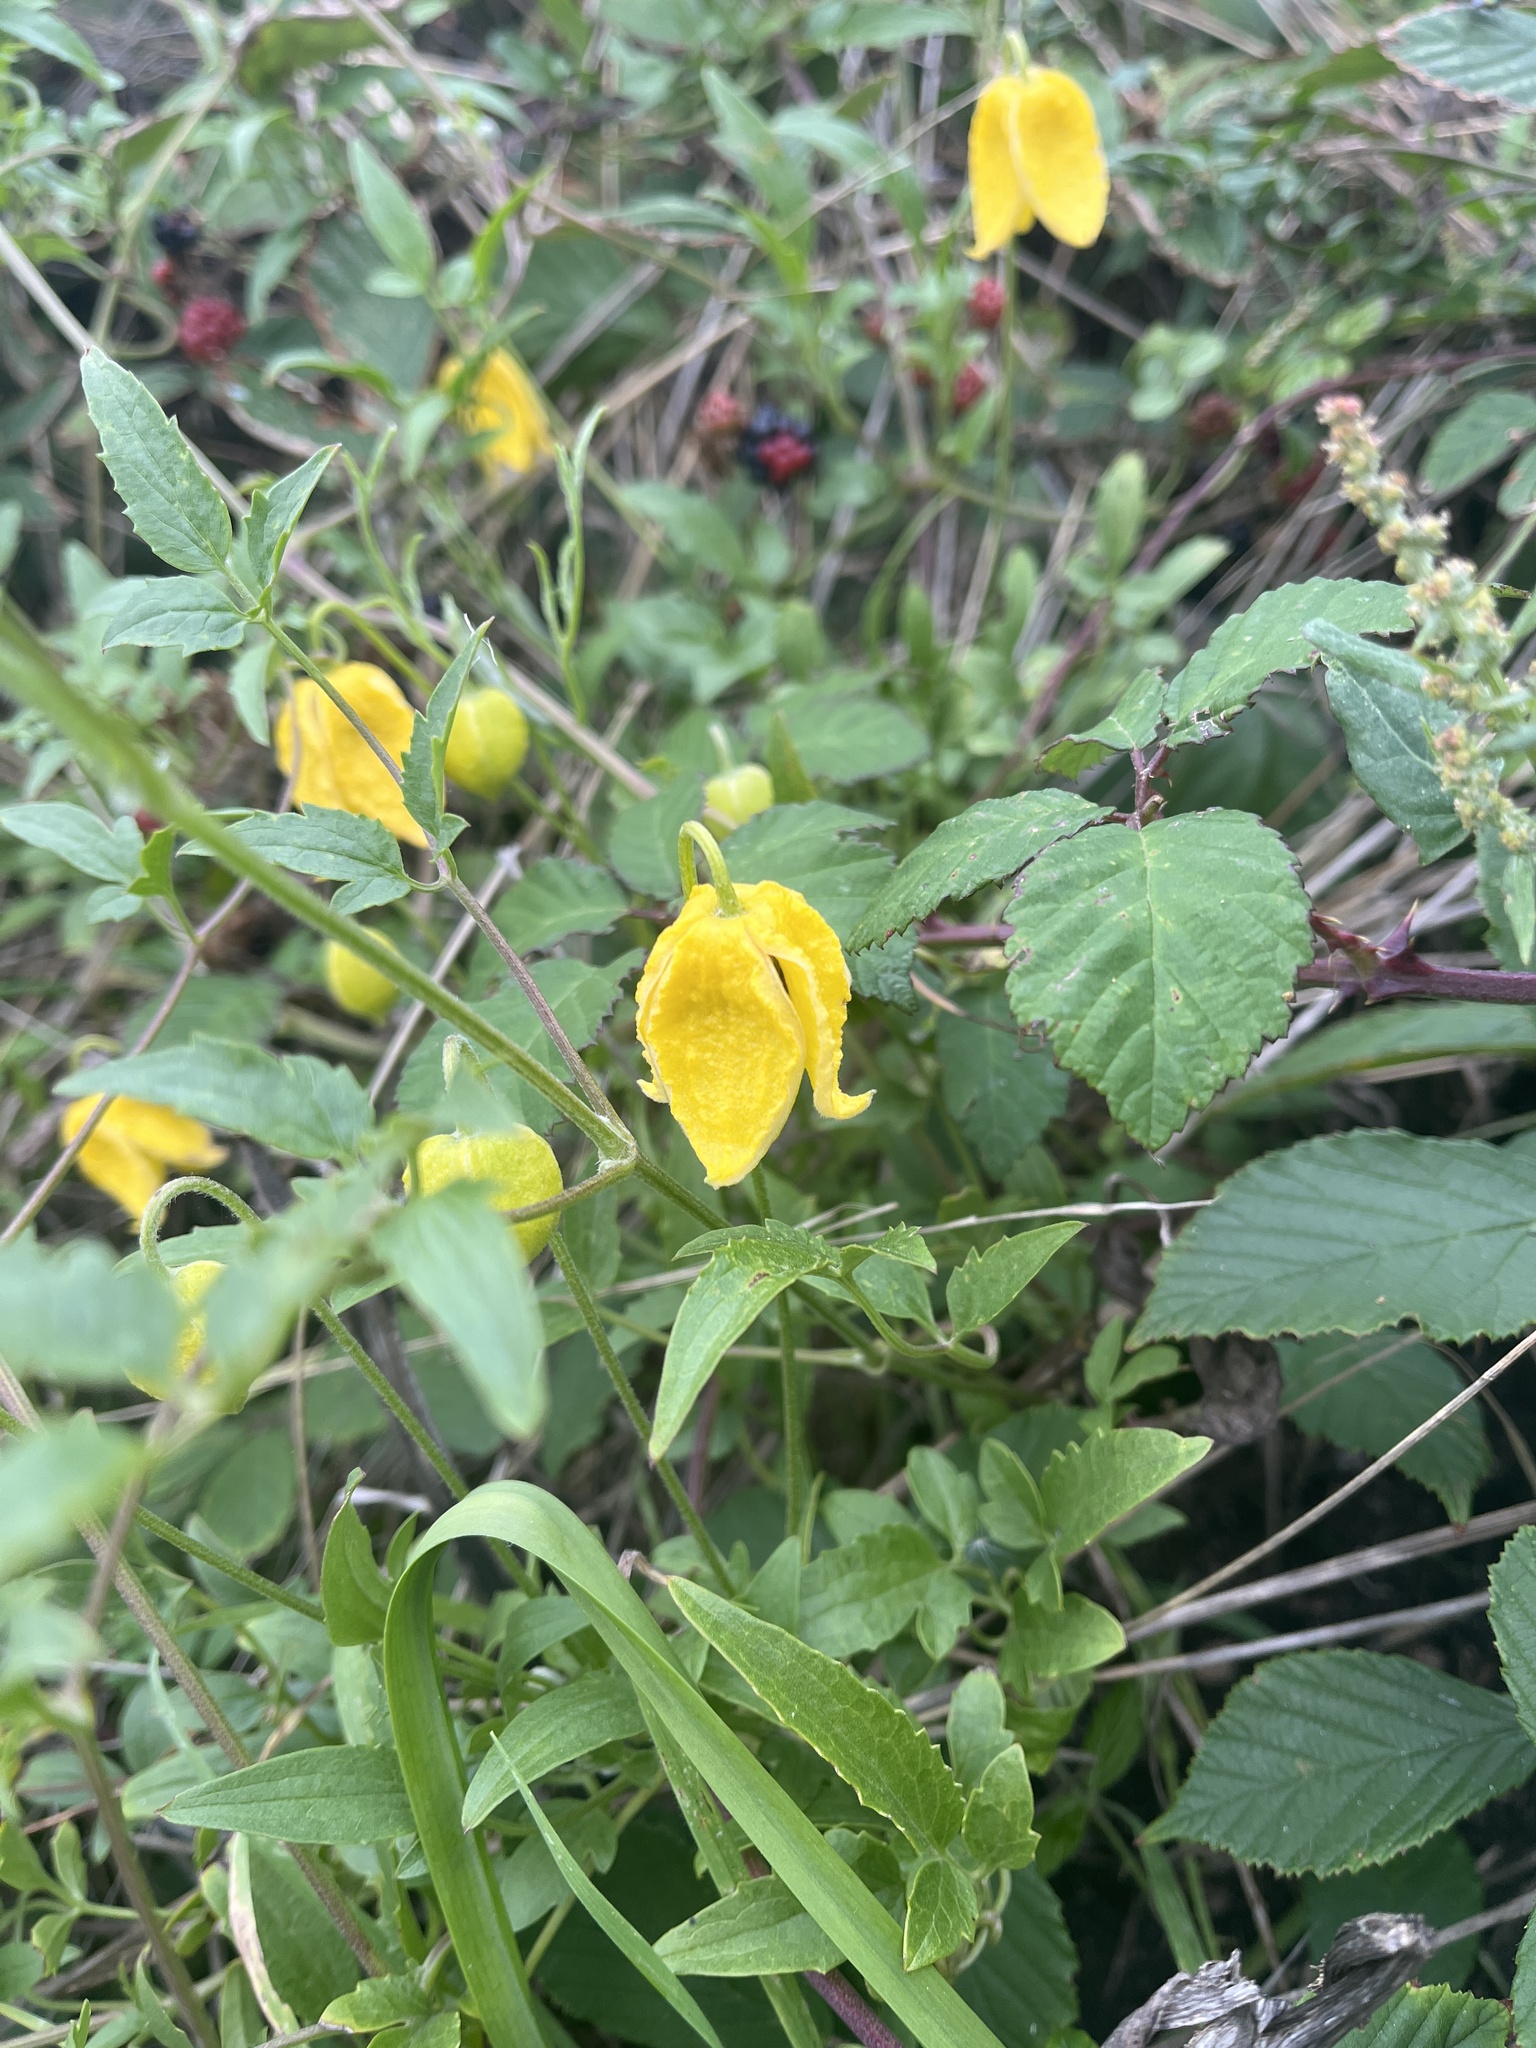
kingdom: Plantae
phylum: Tracheophyta
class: Magnoliopsida
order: Ranunculales
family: Ranunculaceae
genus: Clematis
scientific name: Clematis tangutica
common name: Orange-peel clematis
